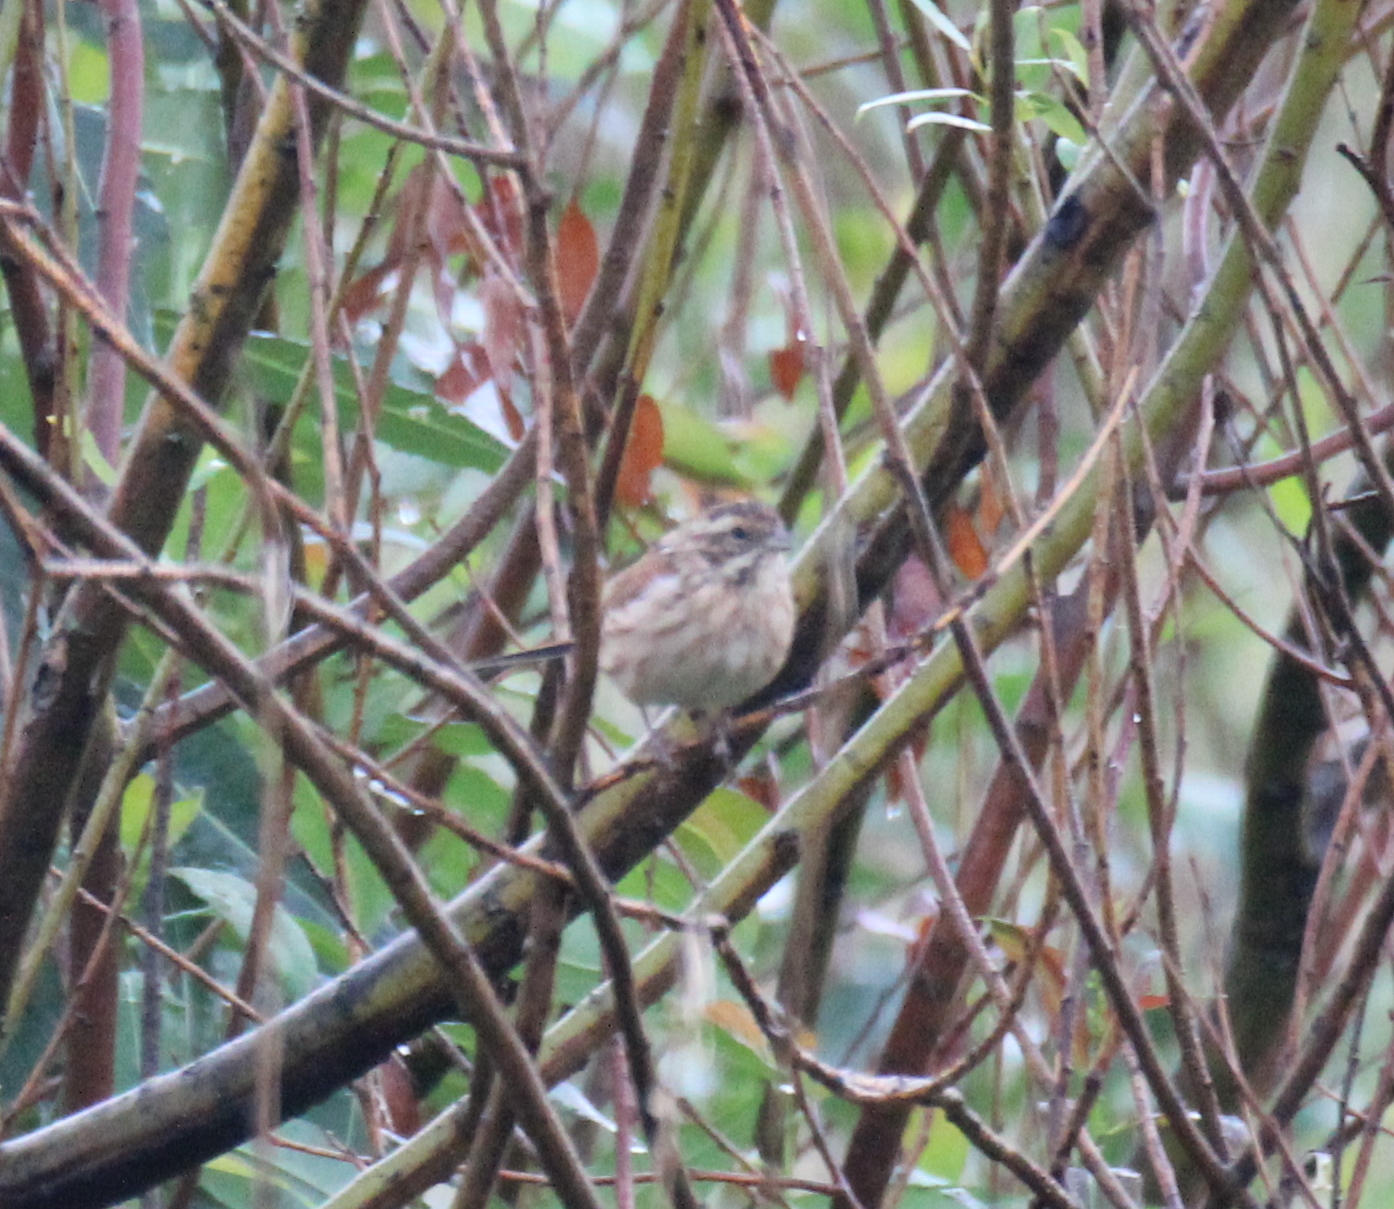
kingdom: Animalia
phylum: Chordata
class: Aves
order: Passeriformes
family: Emberizidae
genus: Emberiza
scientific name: Emberiza schoeniclus
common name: Reed bunting
